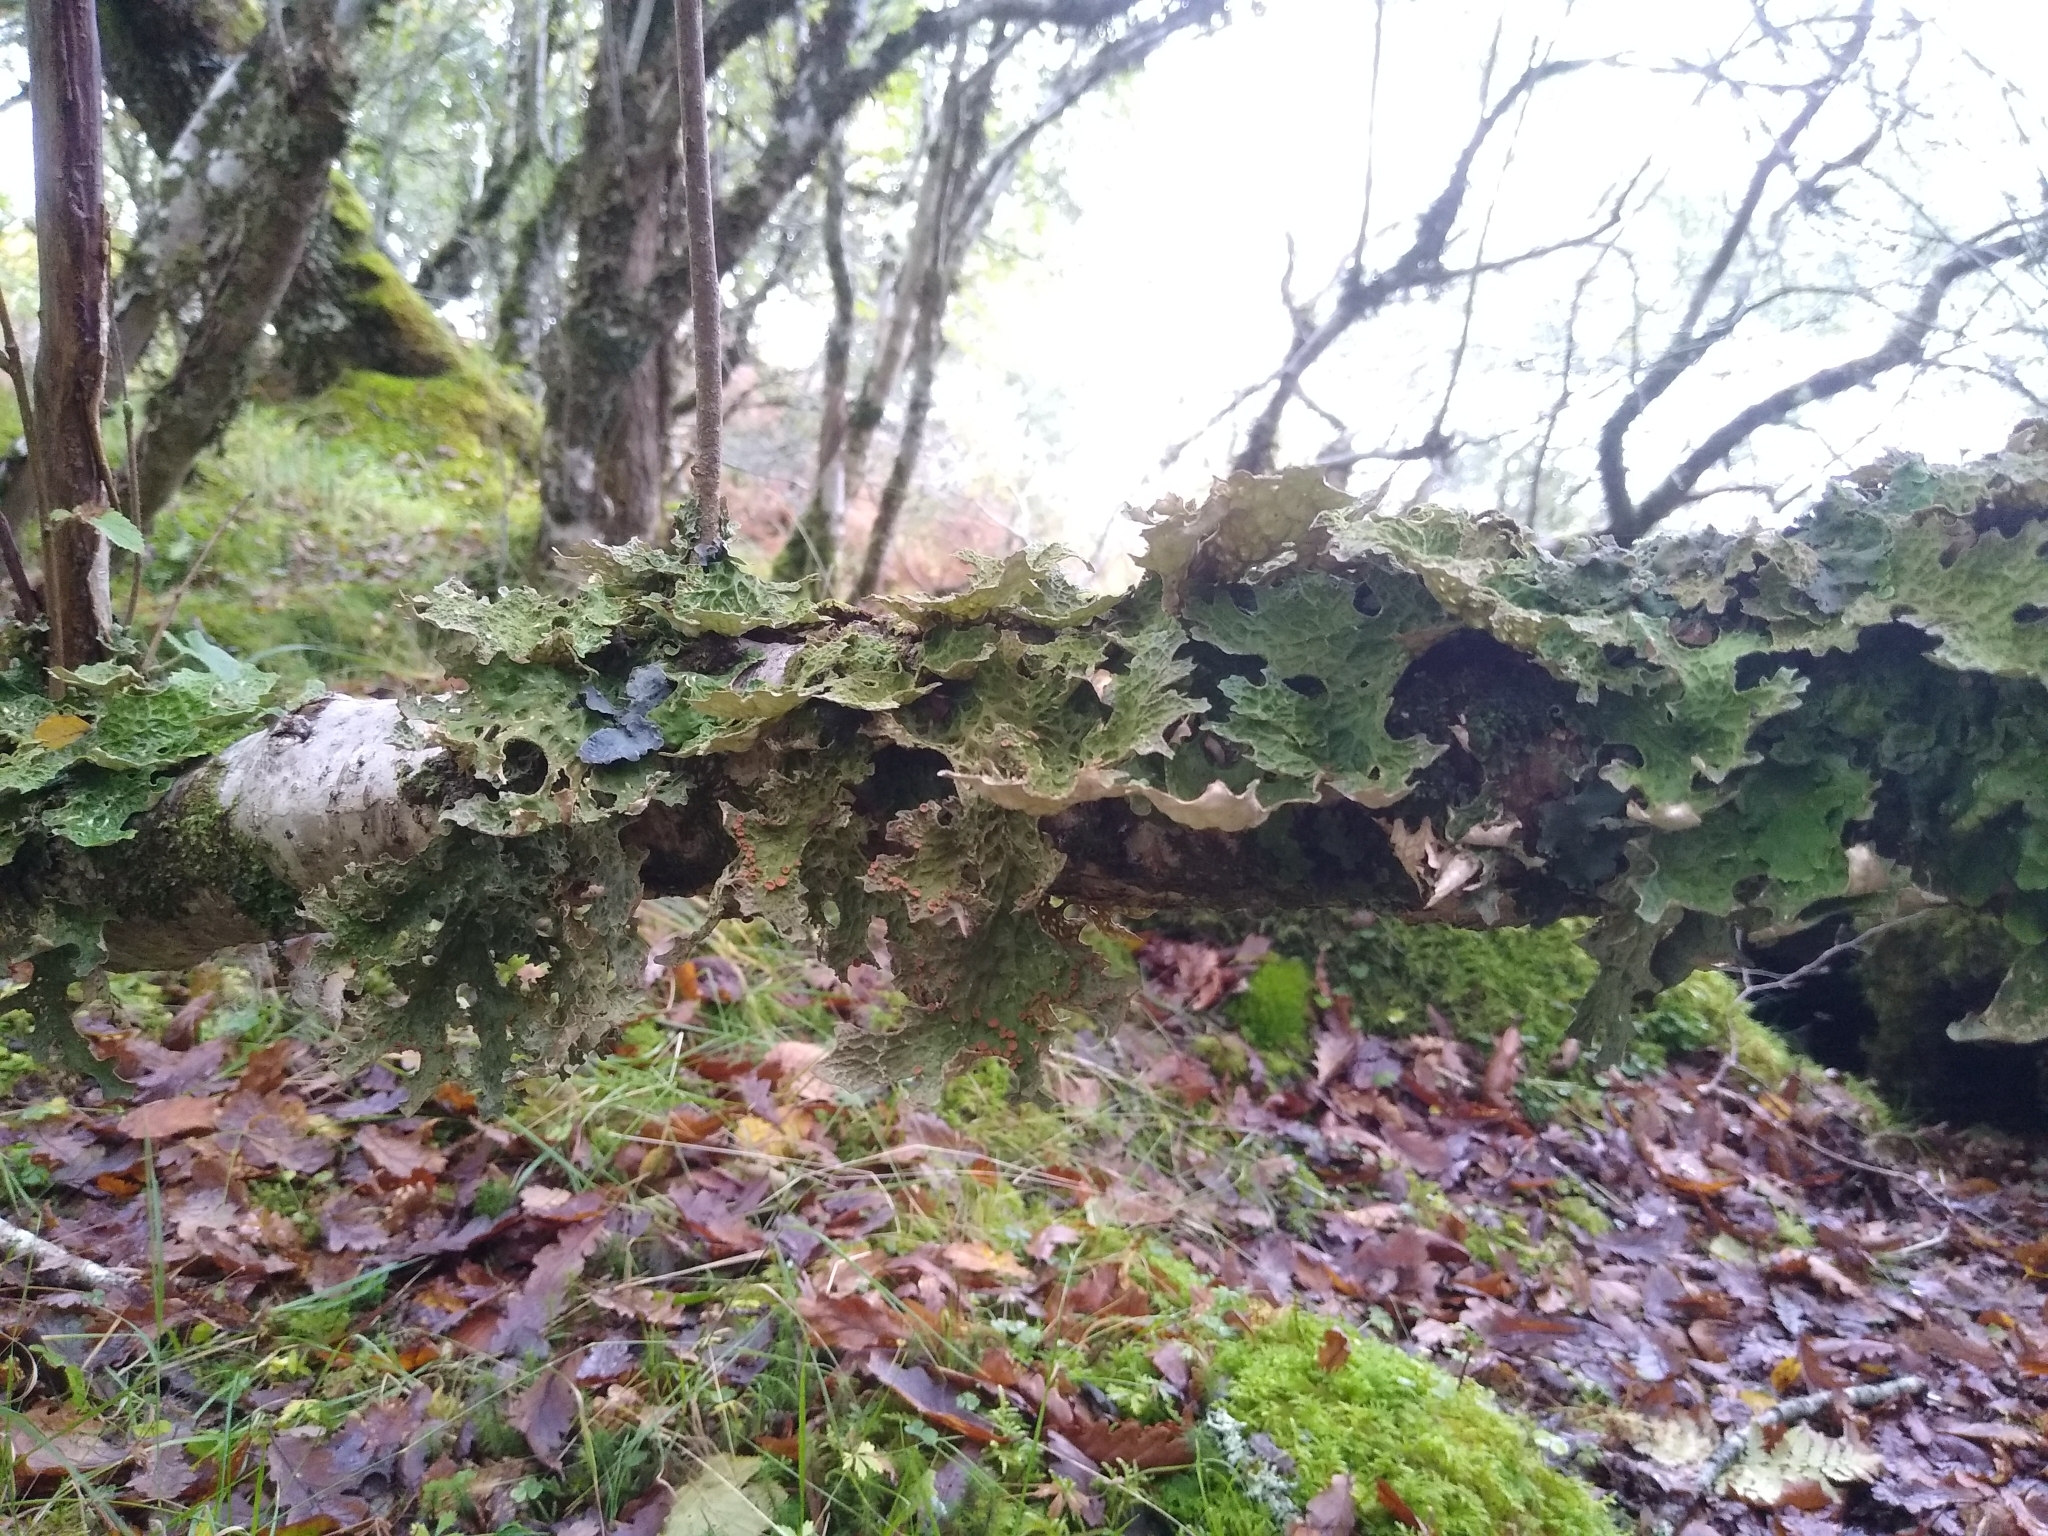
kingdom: Fungi
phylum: Ascomycota
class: Lecanoromycetes
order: Peltigerales
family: Lobariaceae
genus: Lobaria
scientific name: Lobaria pulmonaria
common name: Lungwort
